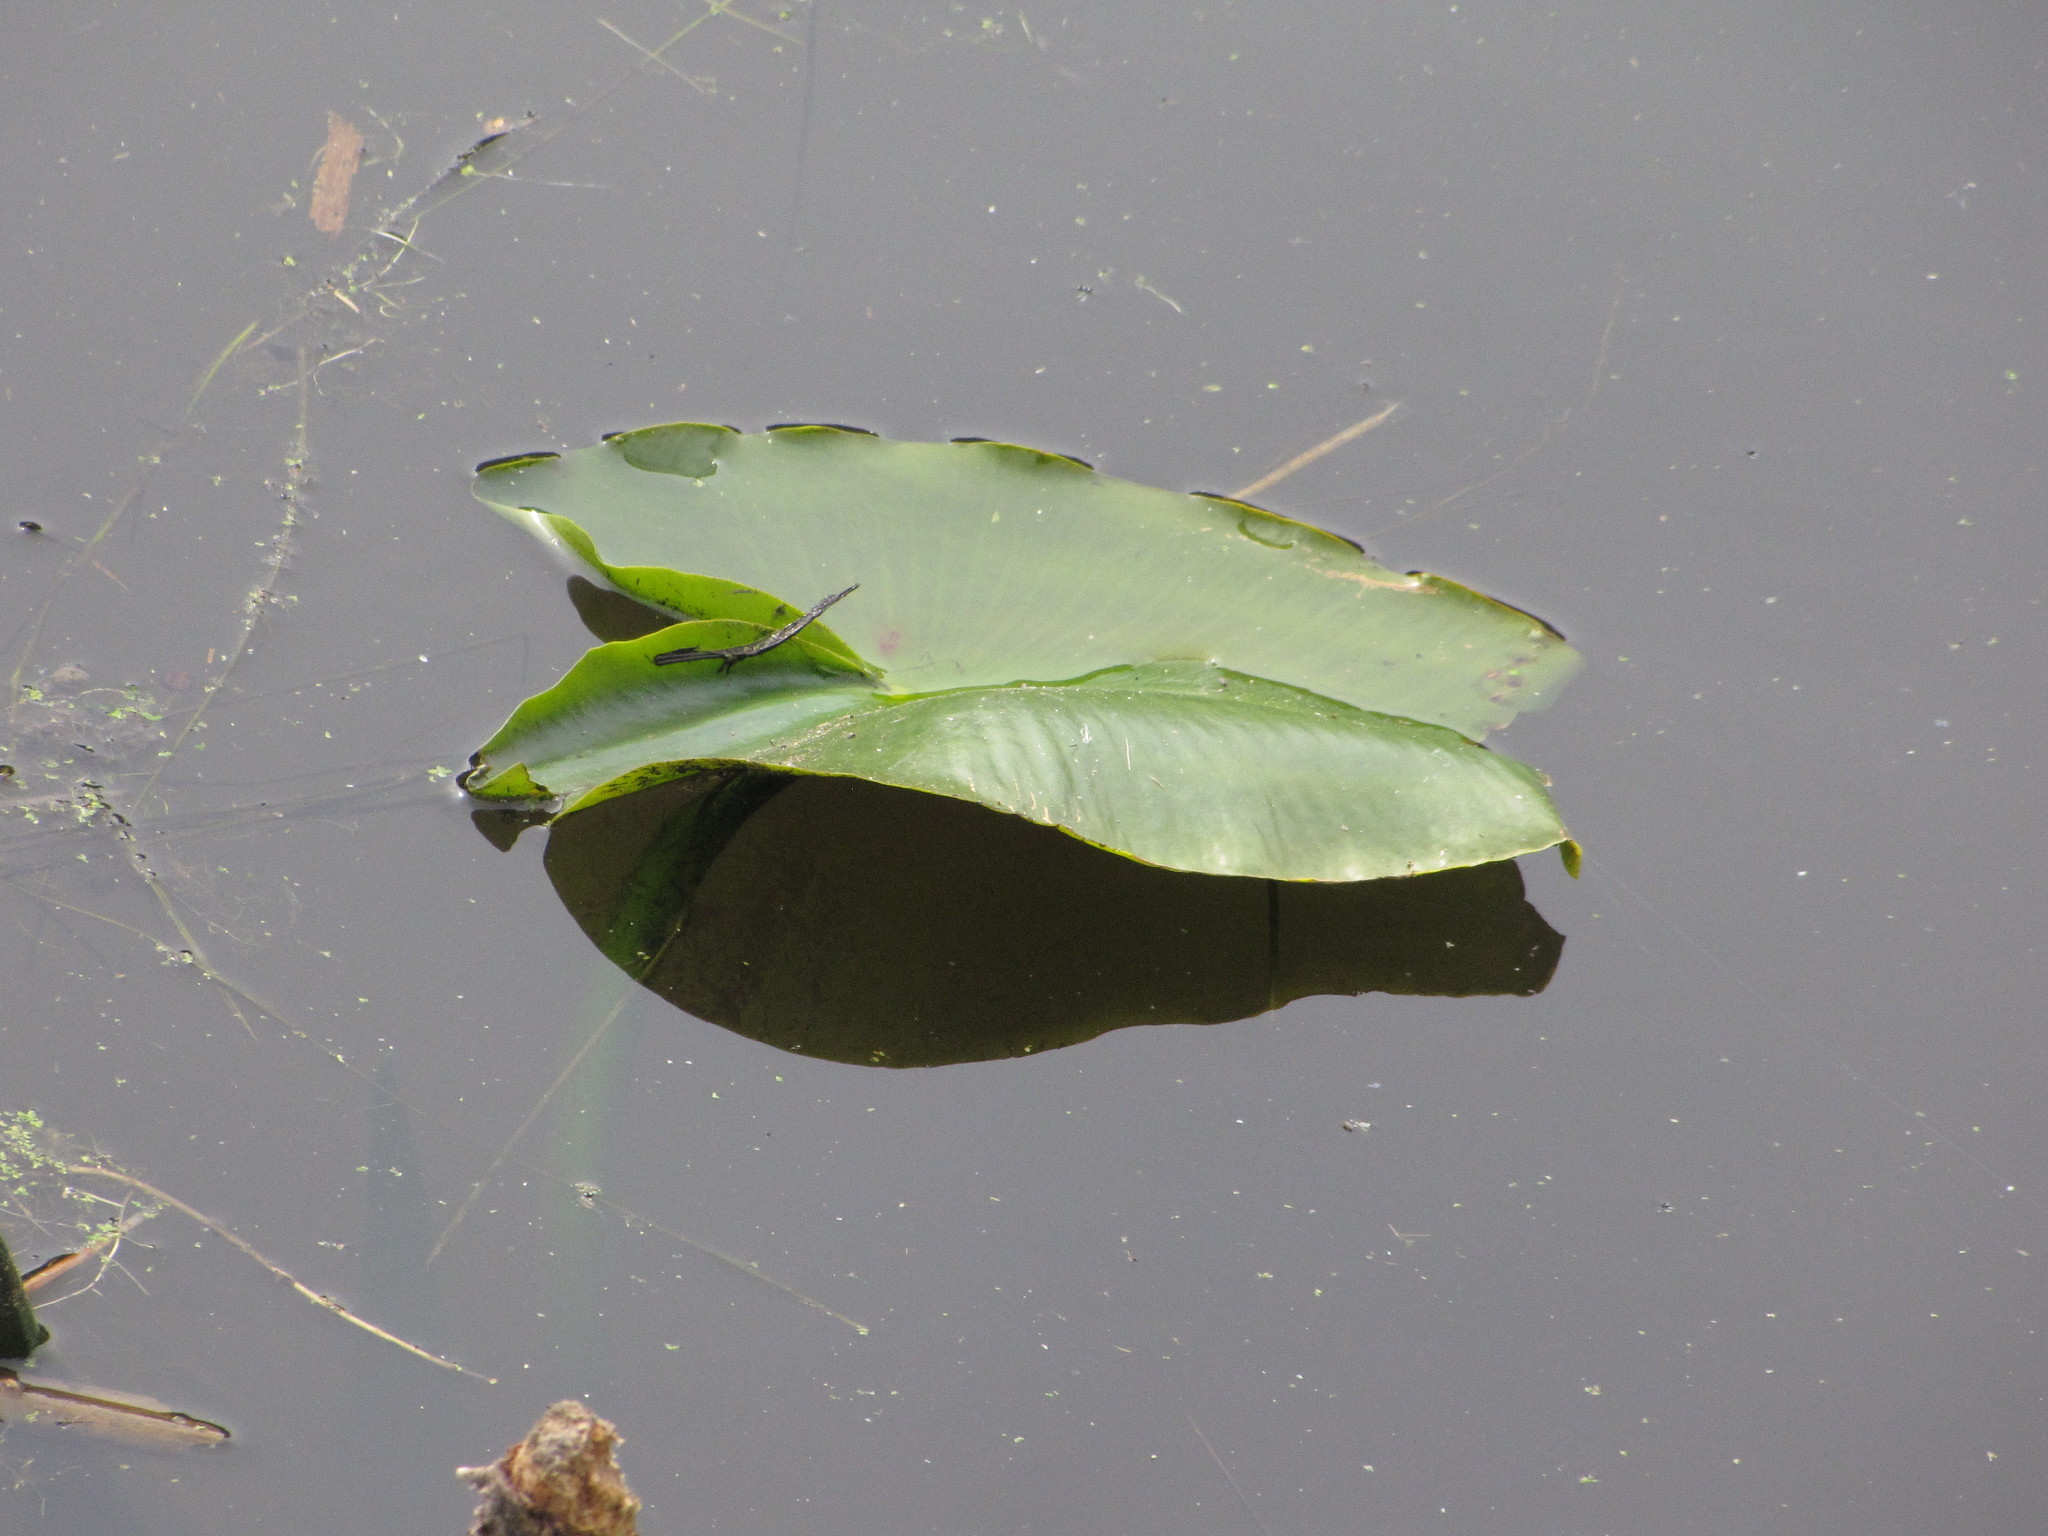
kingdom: Plantae
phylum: Tracheophyta
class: Magnoliopsida
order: Nymphaeales
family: Nymphaeaceae
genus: Nuphar
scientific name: Nuphar polysepala
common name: Rocky mountain cow-lily
